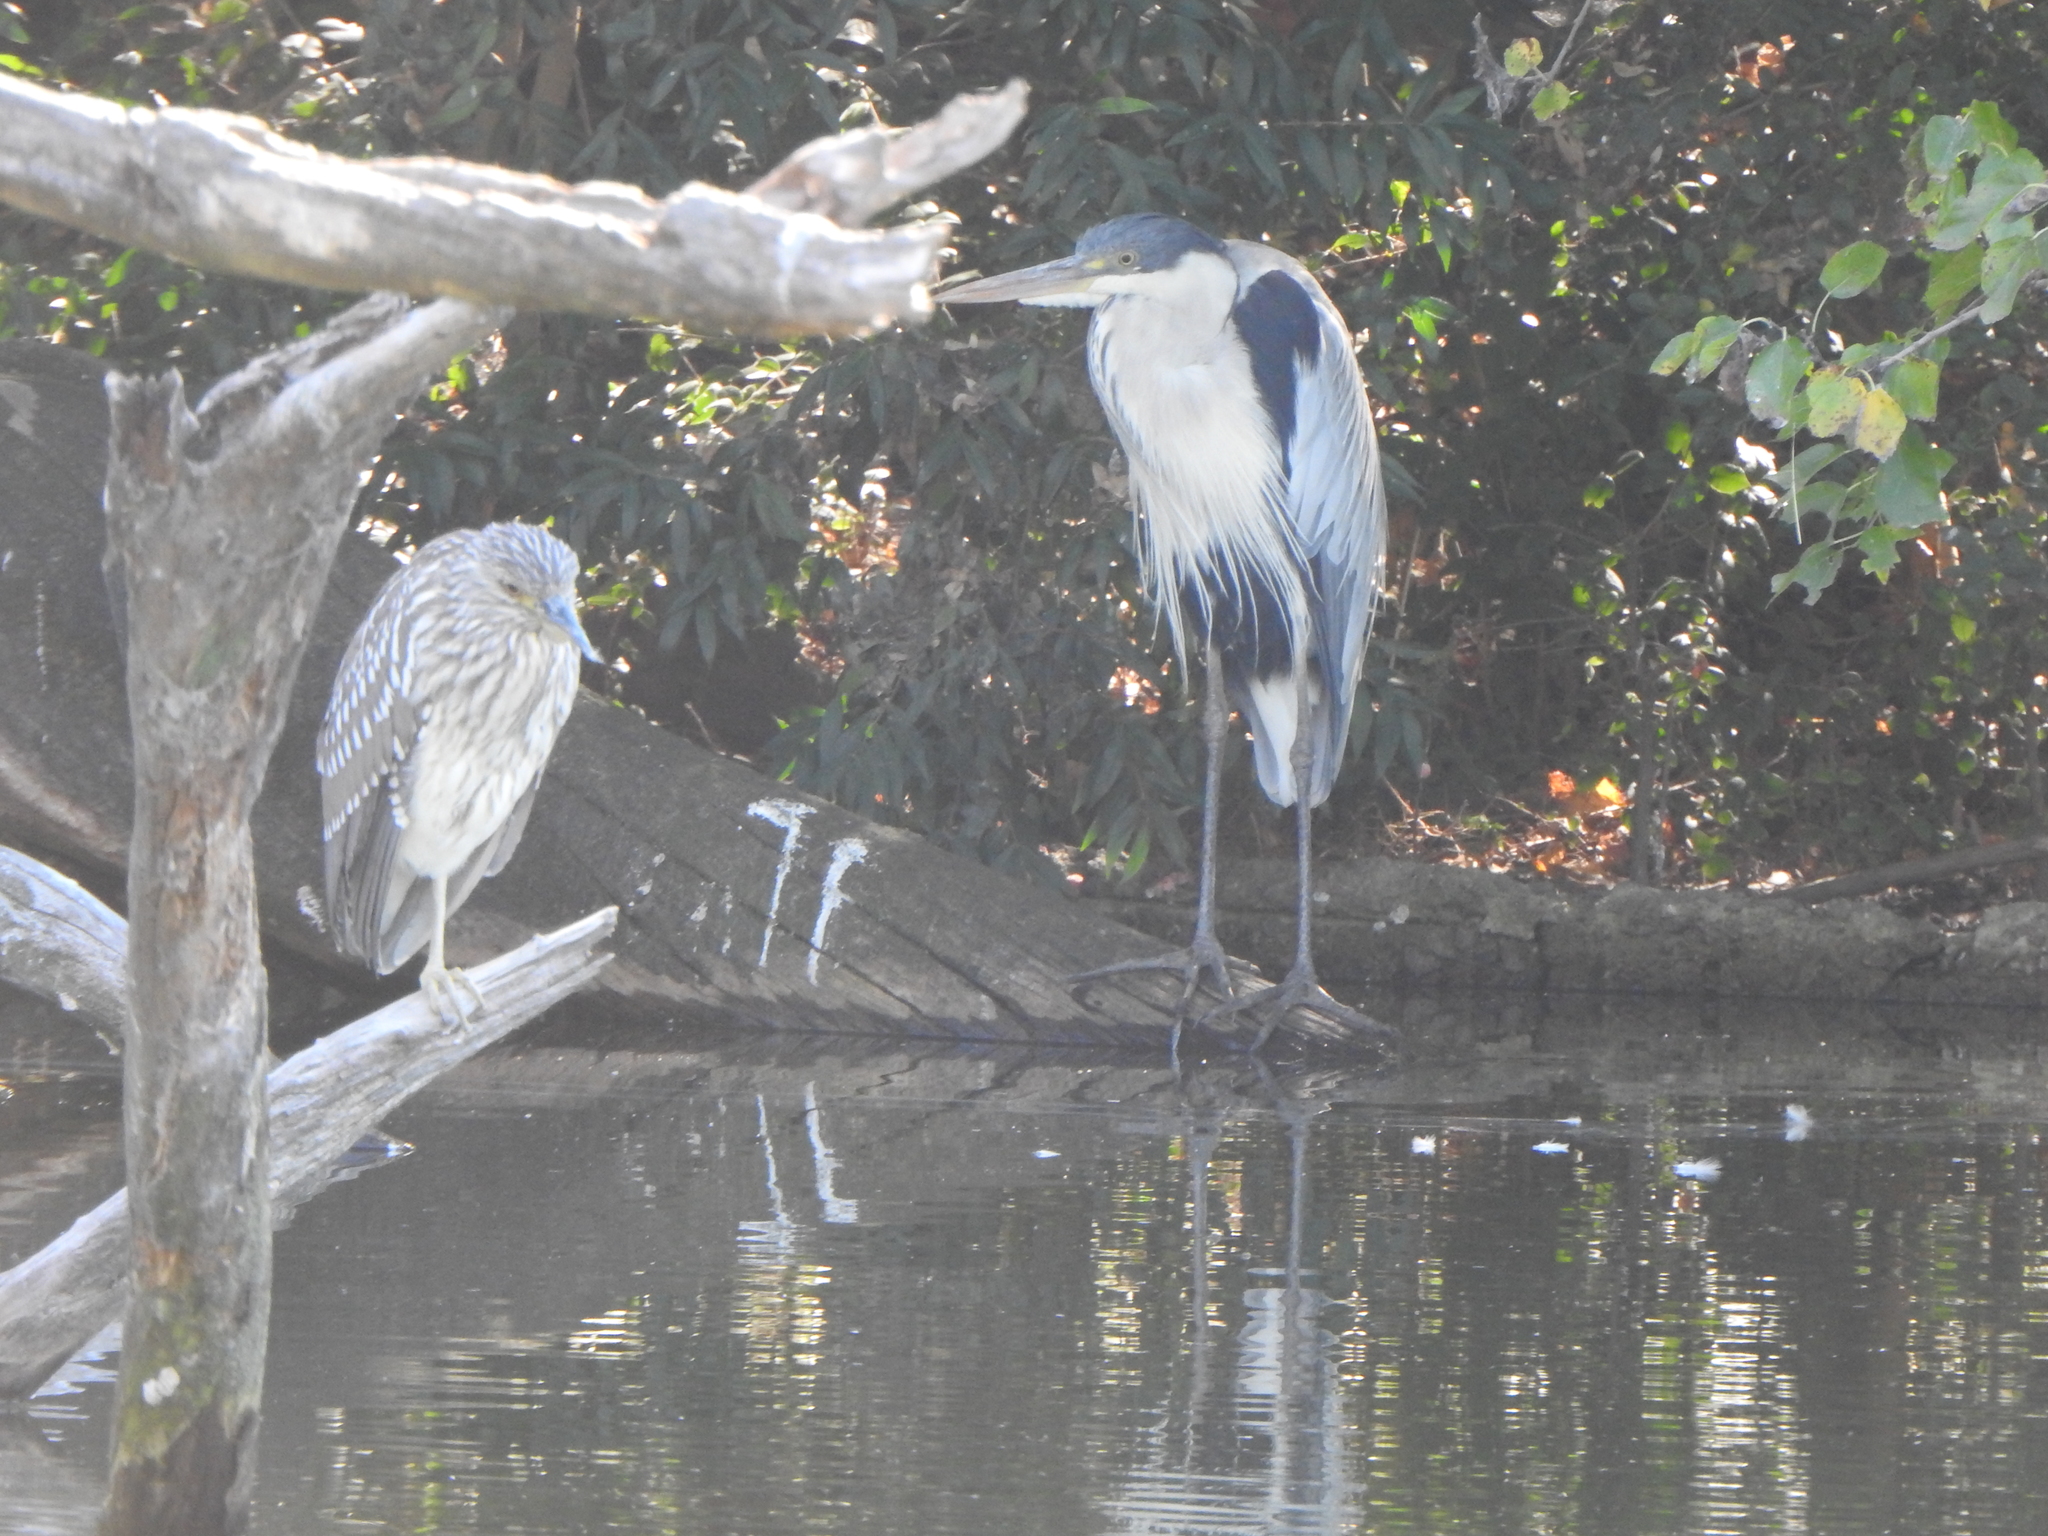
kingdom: Animalia
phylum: Chordata
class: Aves
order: Pelecaniformes
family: Ardeidae
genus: Ardea
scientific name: Ardea cocoi
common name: Cocoi heron
